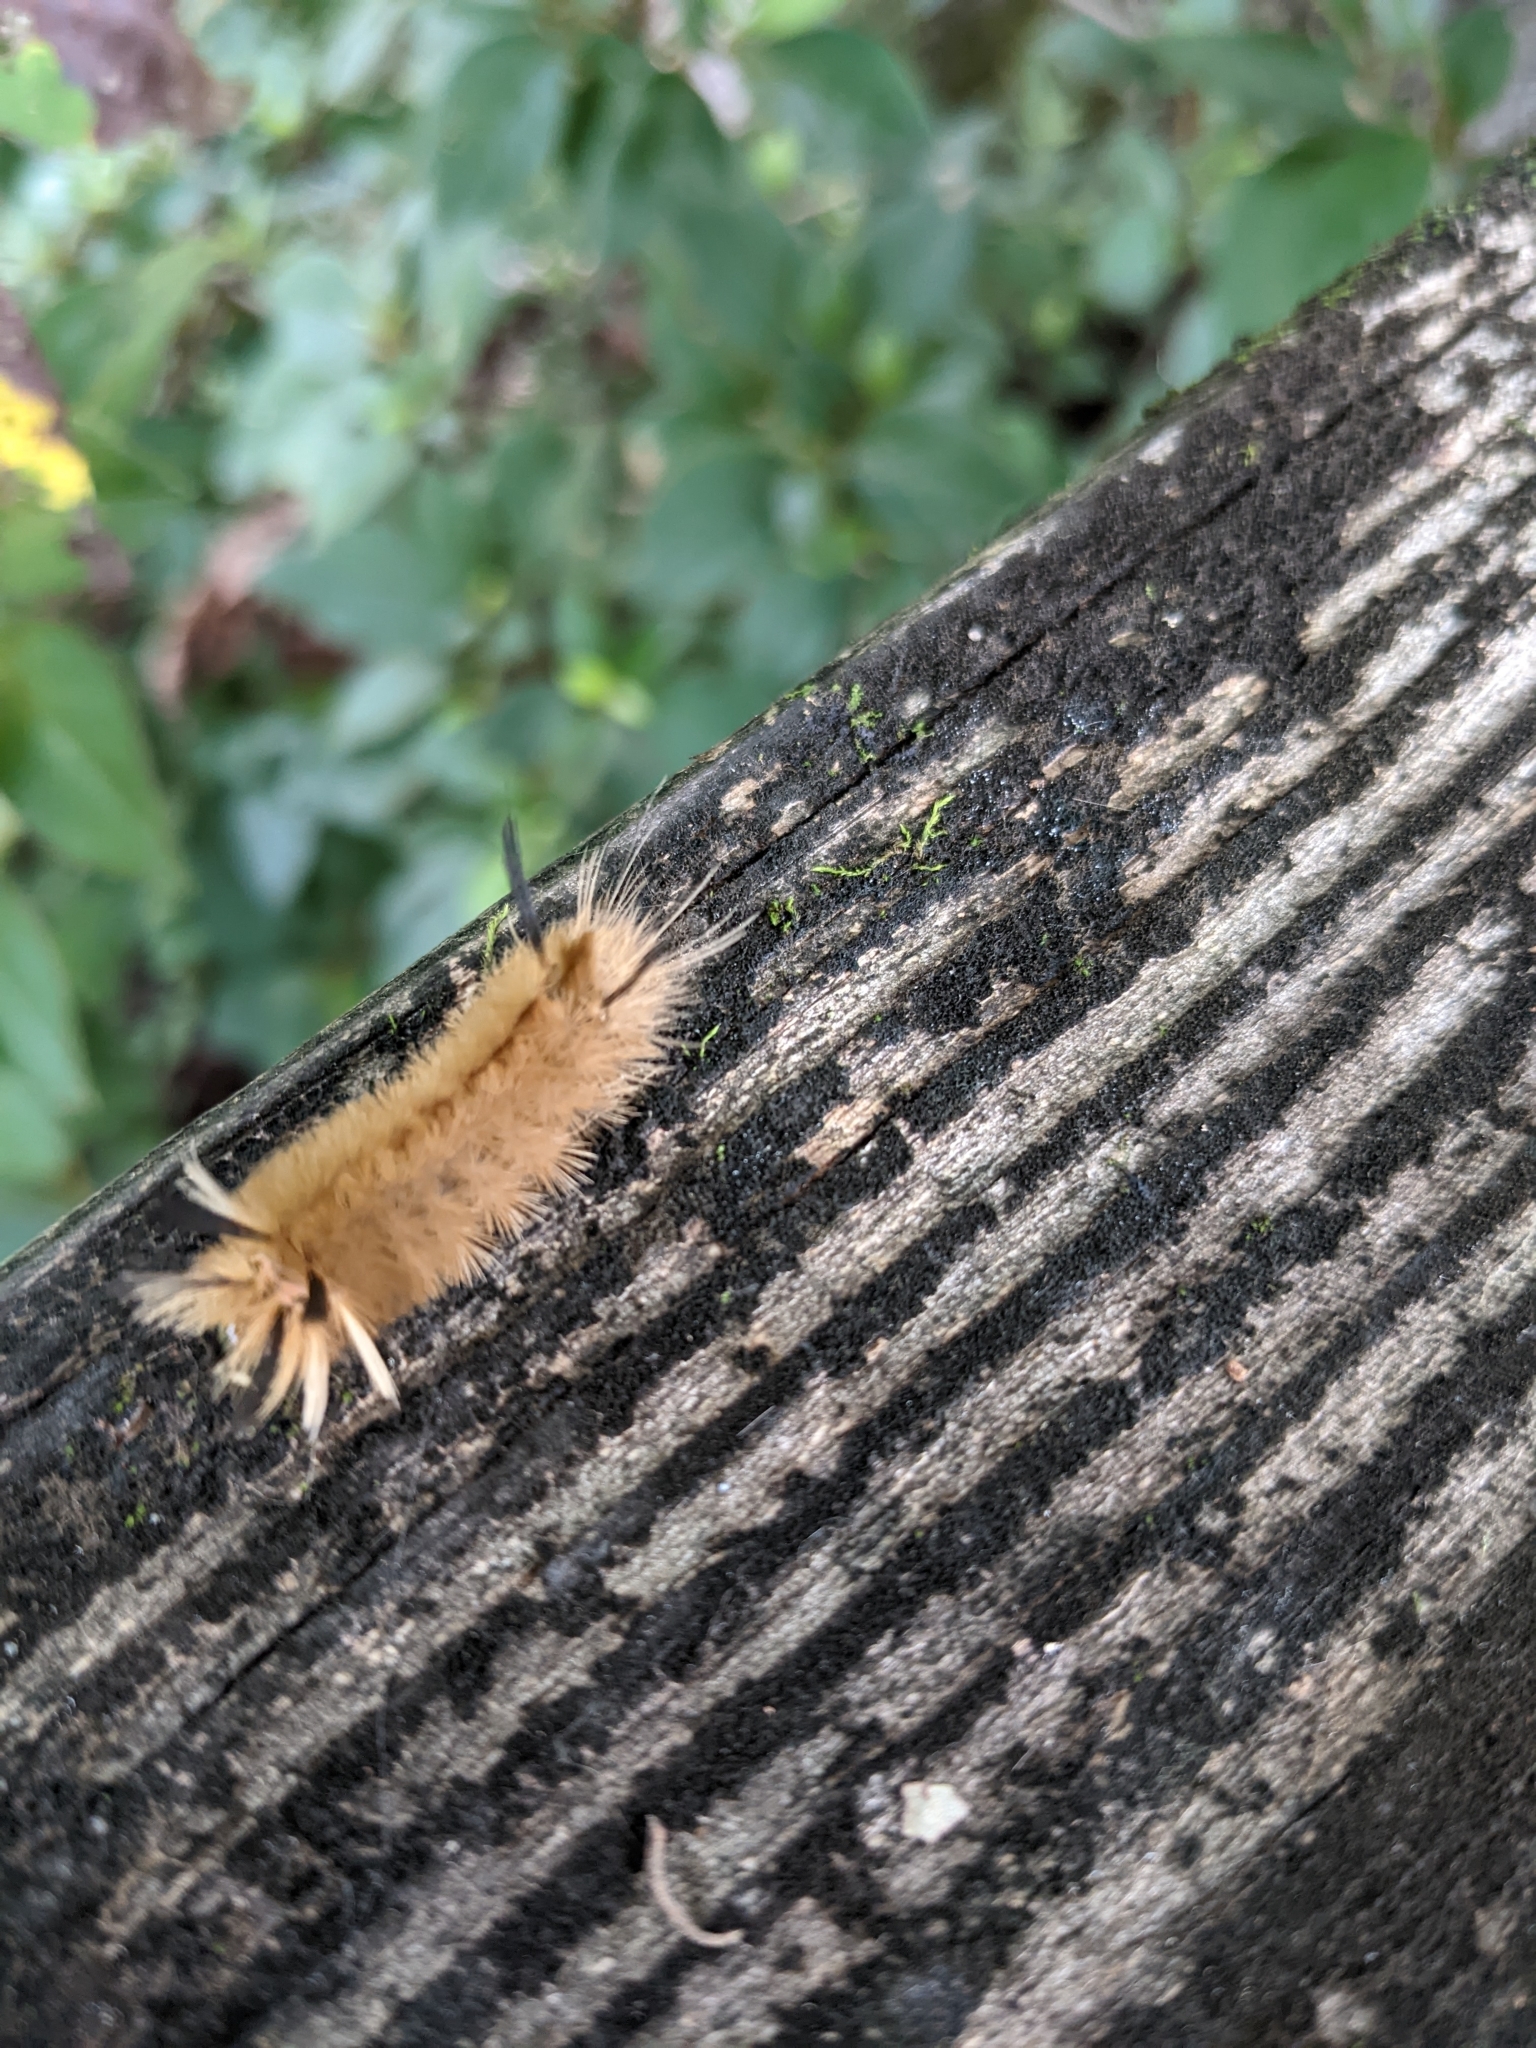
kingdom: Animalia
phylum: Arthropoda
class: Insecta
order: Lepidoptera
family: Erebidae
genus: Halysidota
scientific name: Halysidota tessellaris
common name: Banded tussock moth
